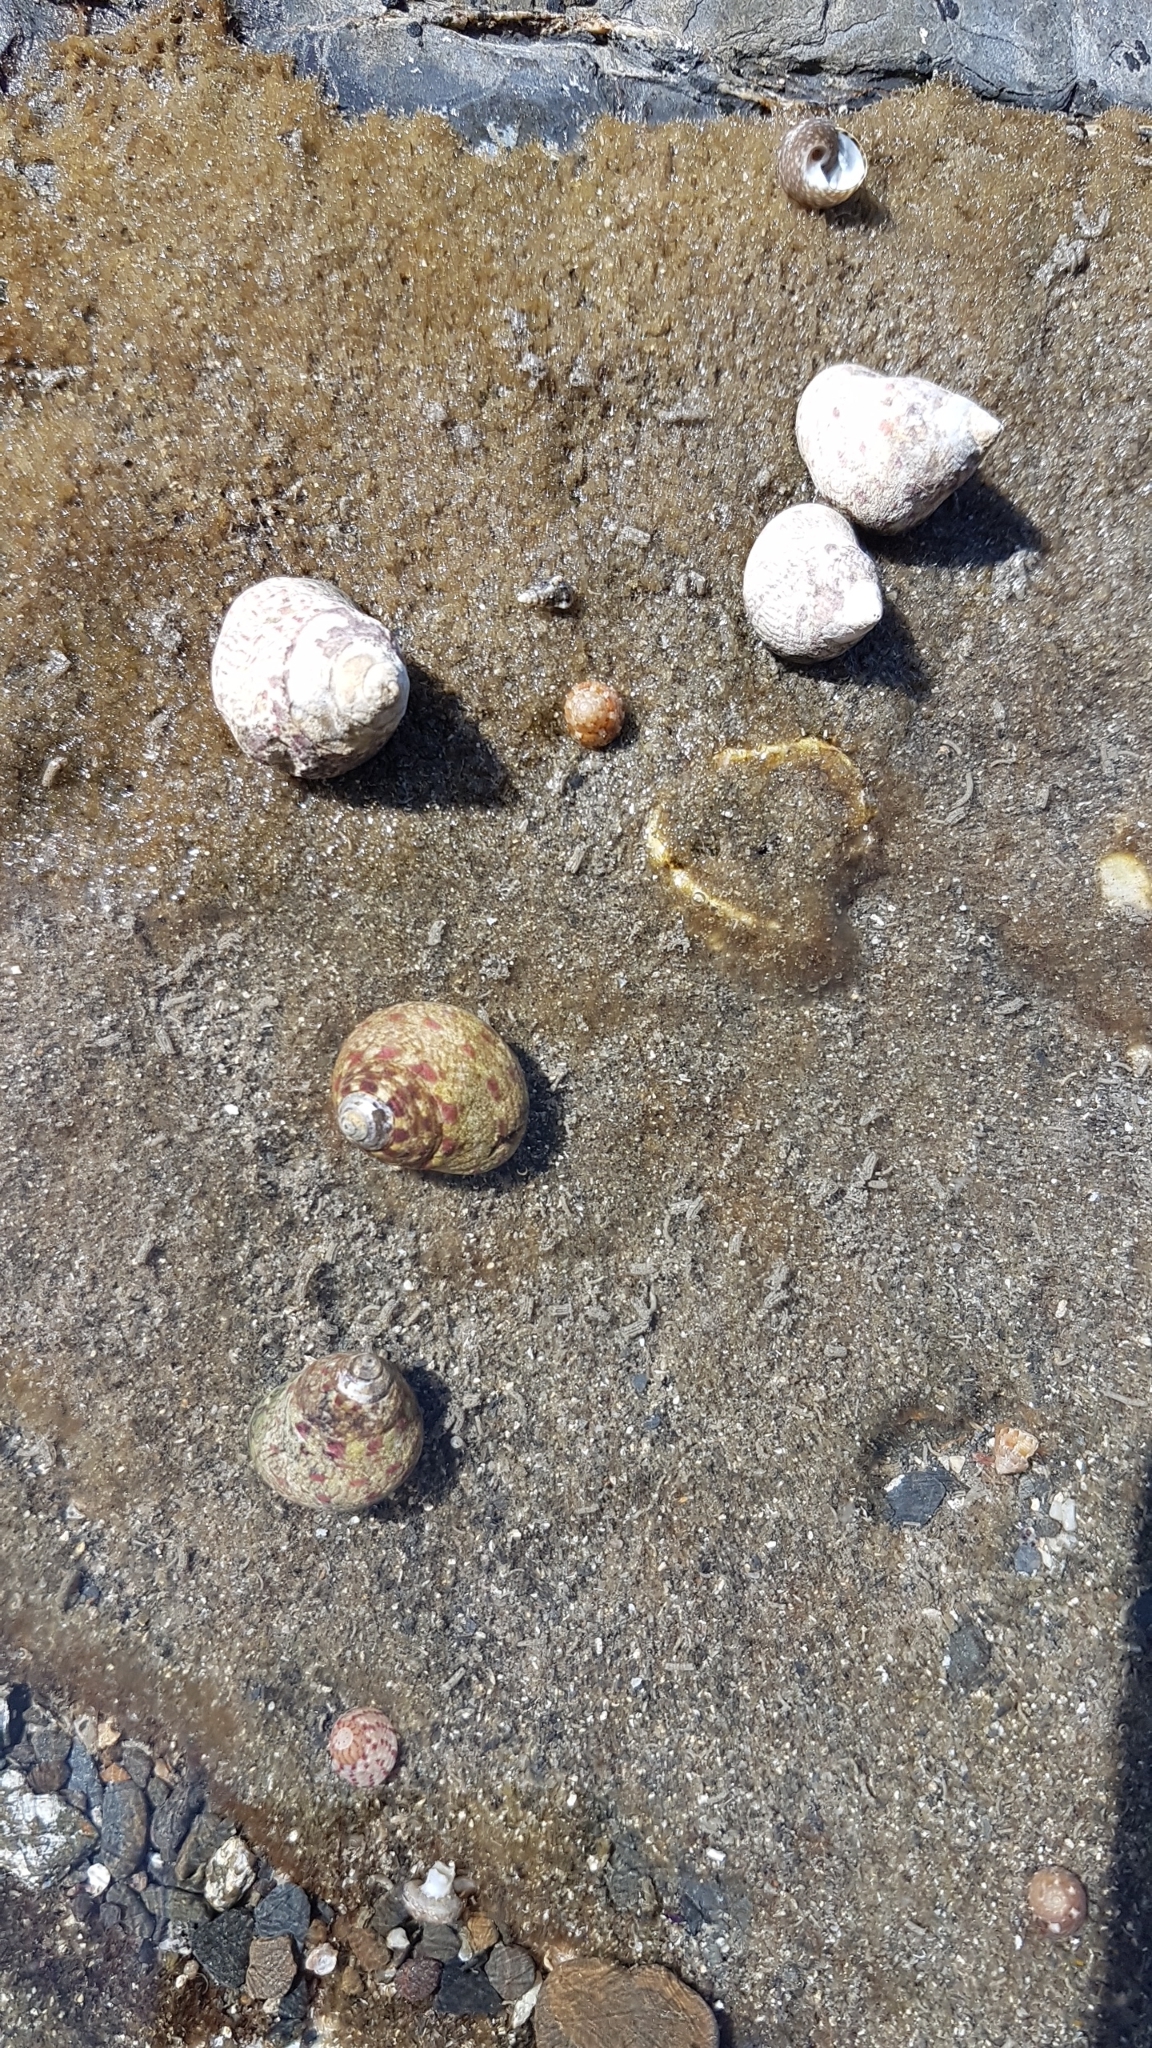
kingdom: Animalia
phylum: Mollusca
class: Gastropoda
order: Trochida
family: Trochidae
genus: Phorcus
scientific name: Phorcus articulatus
